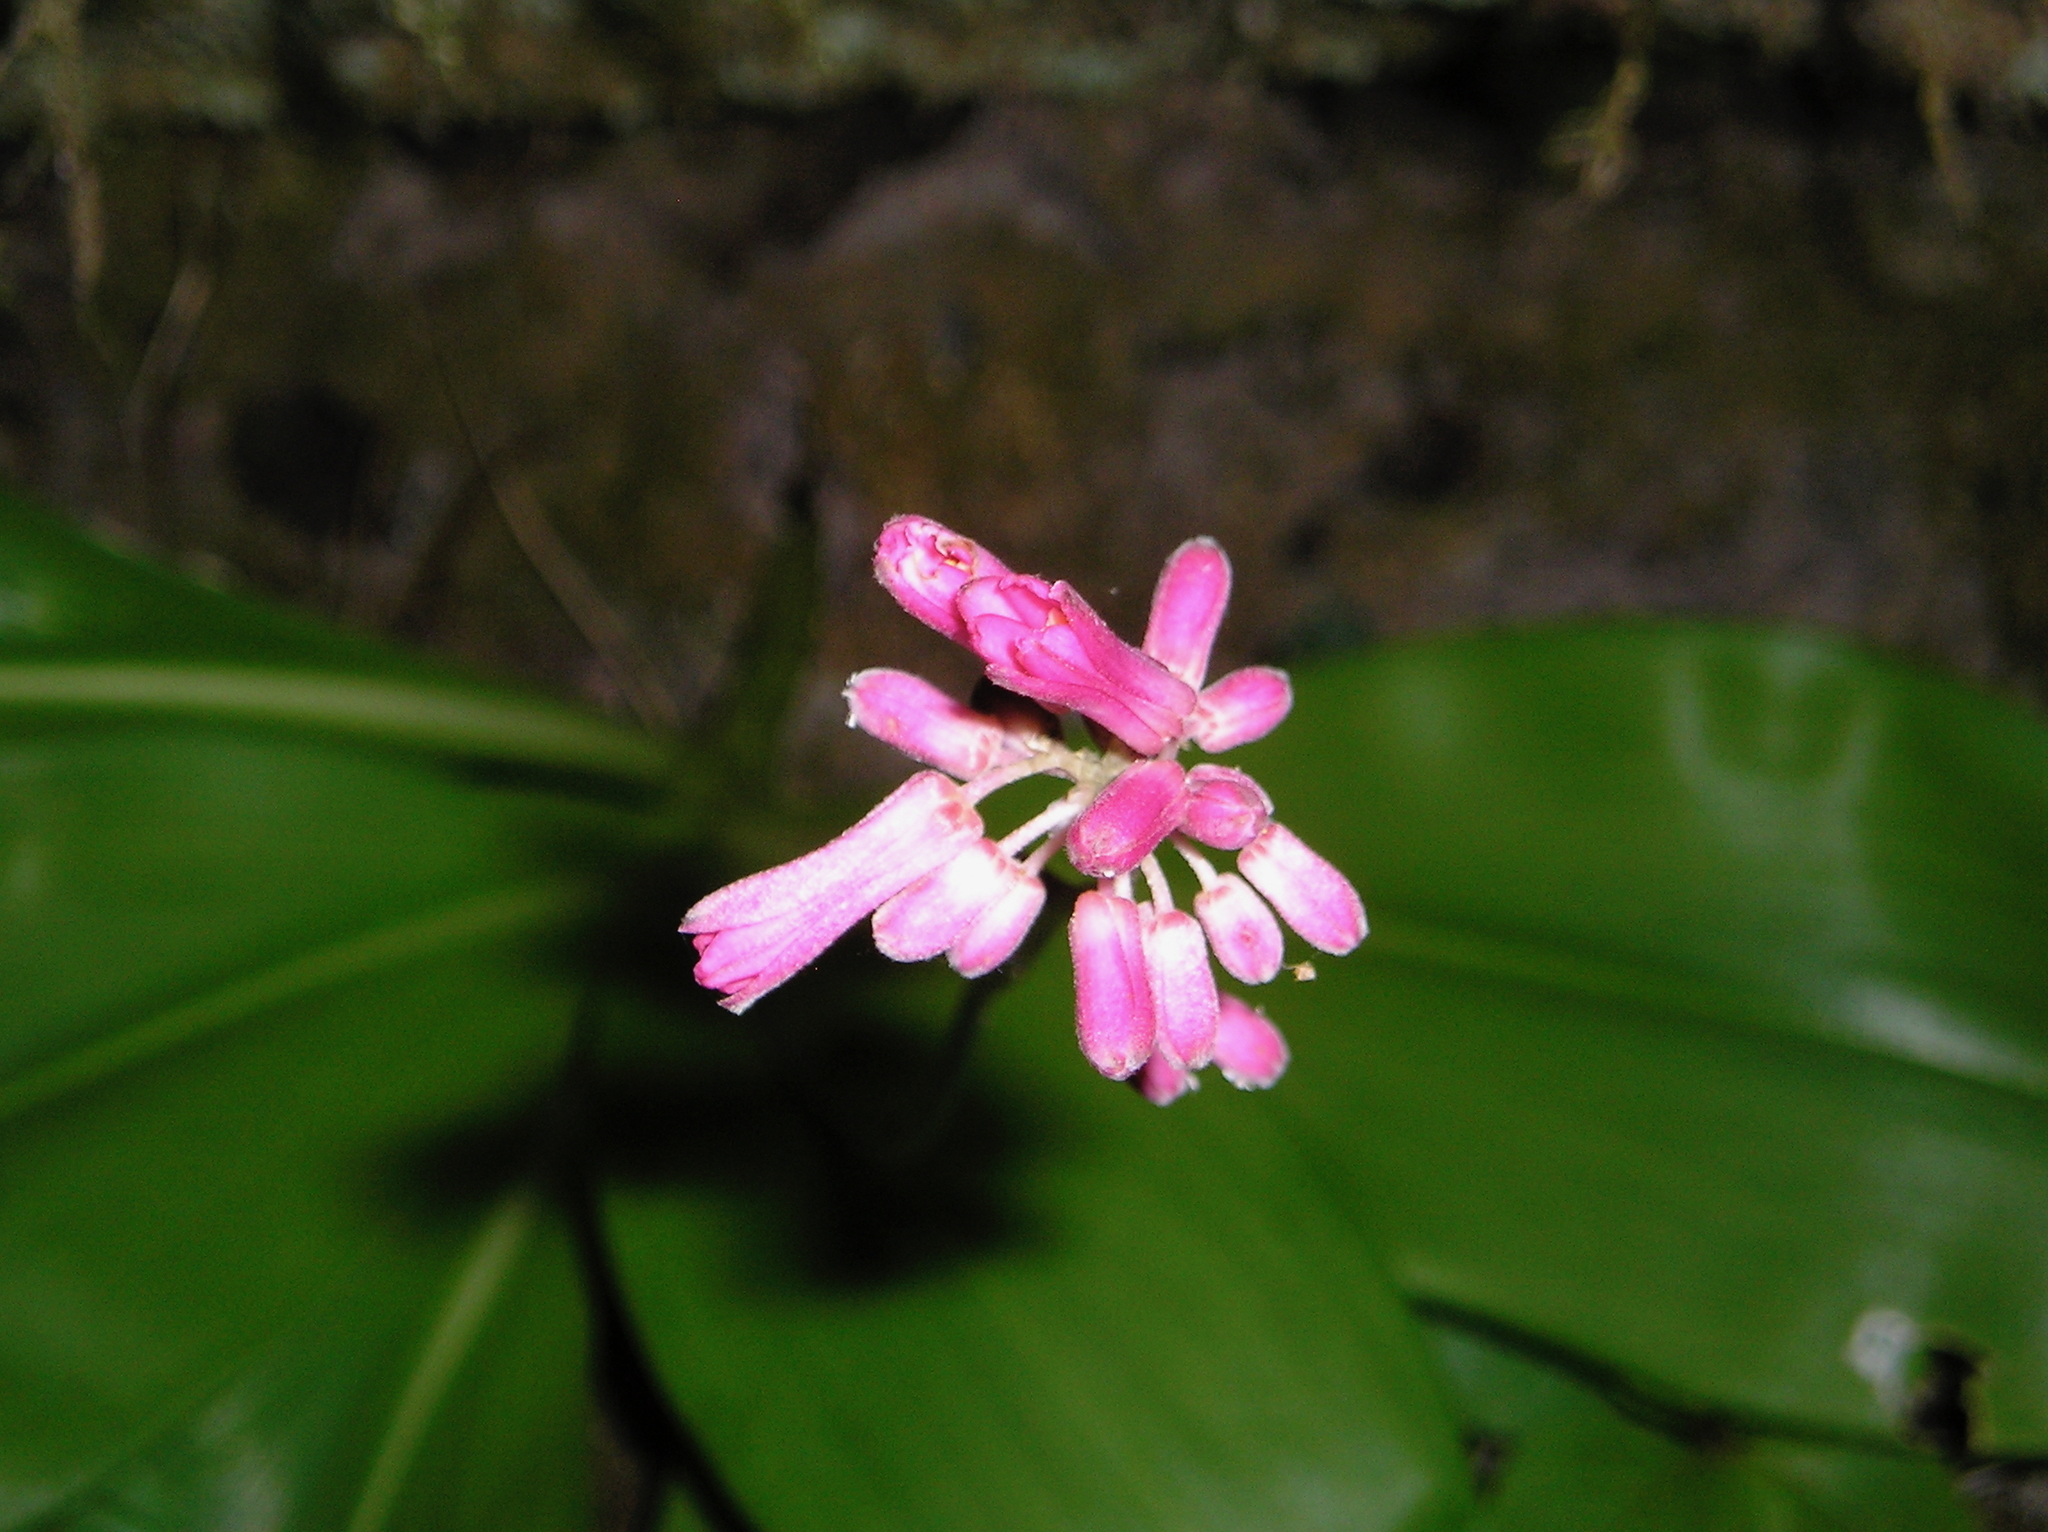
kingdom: Plantae
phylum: Tracheophyta
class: Liliopsida
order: Liliales
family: Liliaceae
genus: Clintonia
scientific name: Clintonia andrewsiana
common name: Red clintonia
